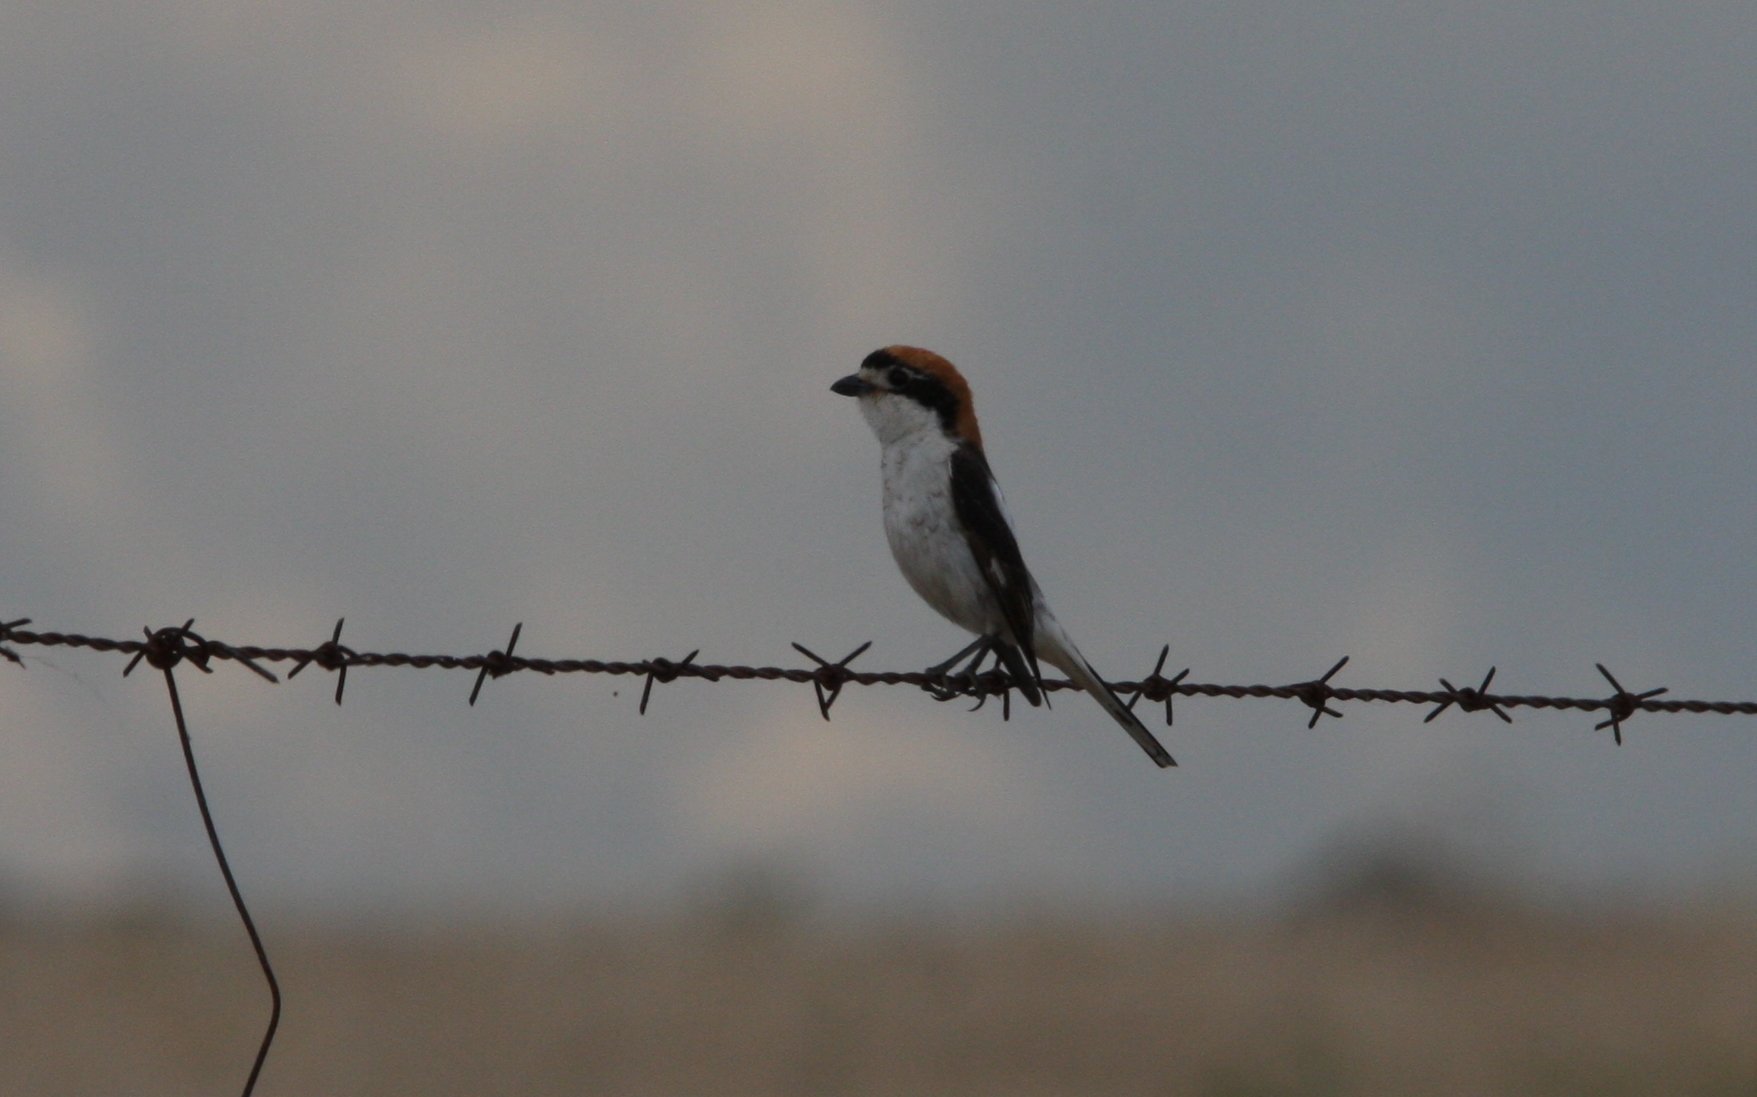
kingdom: Animalia
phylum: Chordata
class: Aves
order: Passeriformes
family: Laniidae
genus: Lanius
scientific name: Lanius senator
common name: Woodchat shrike
